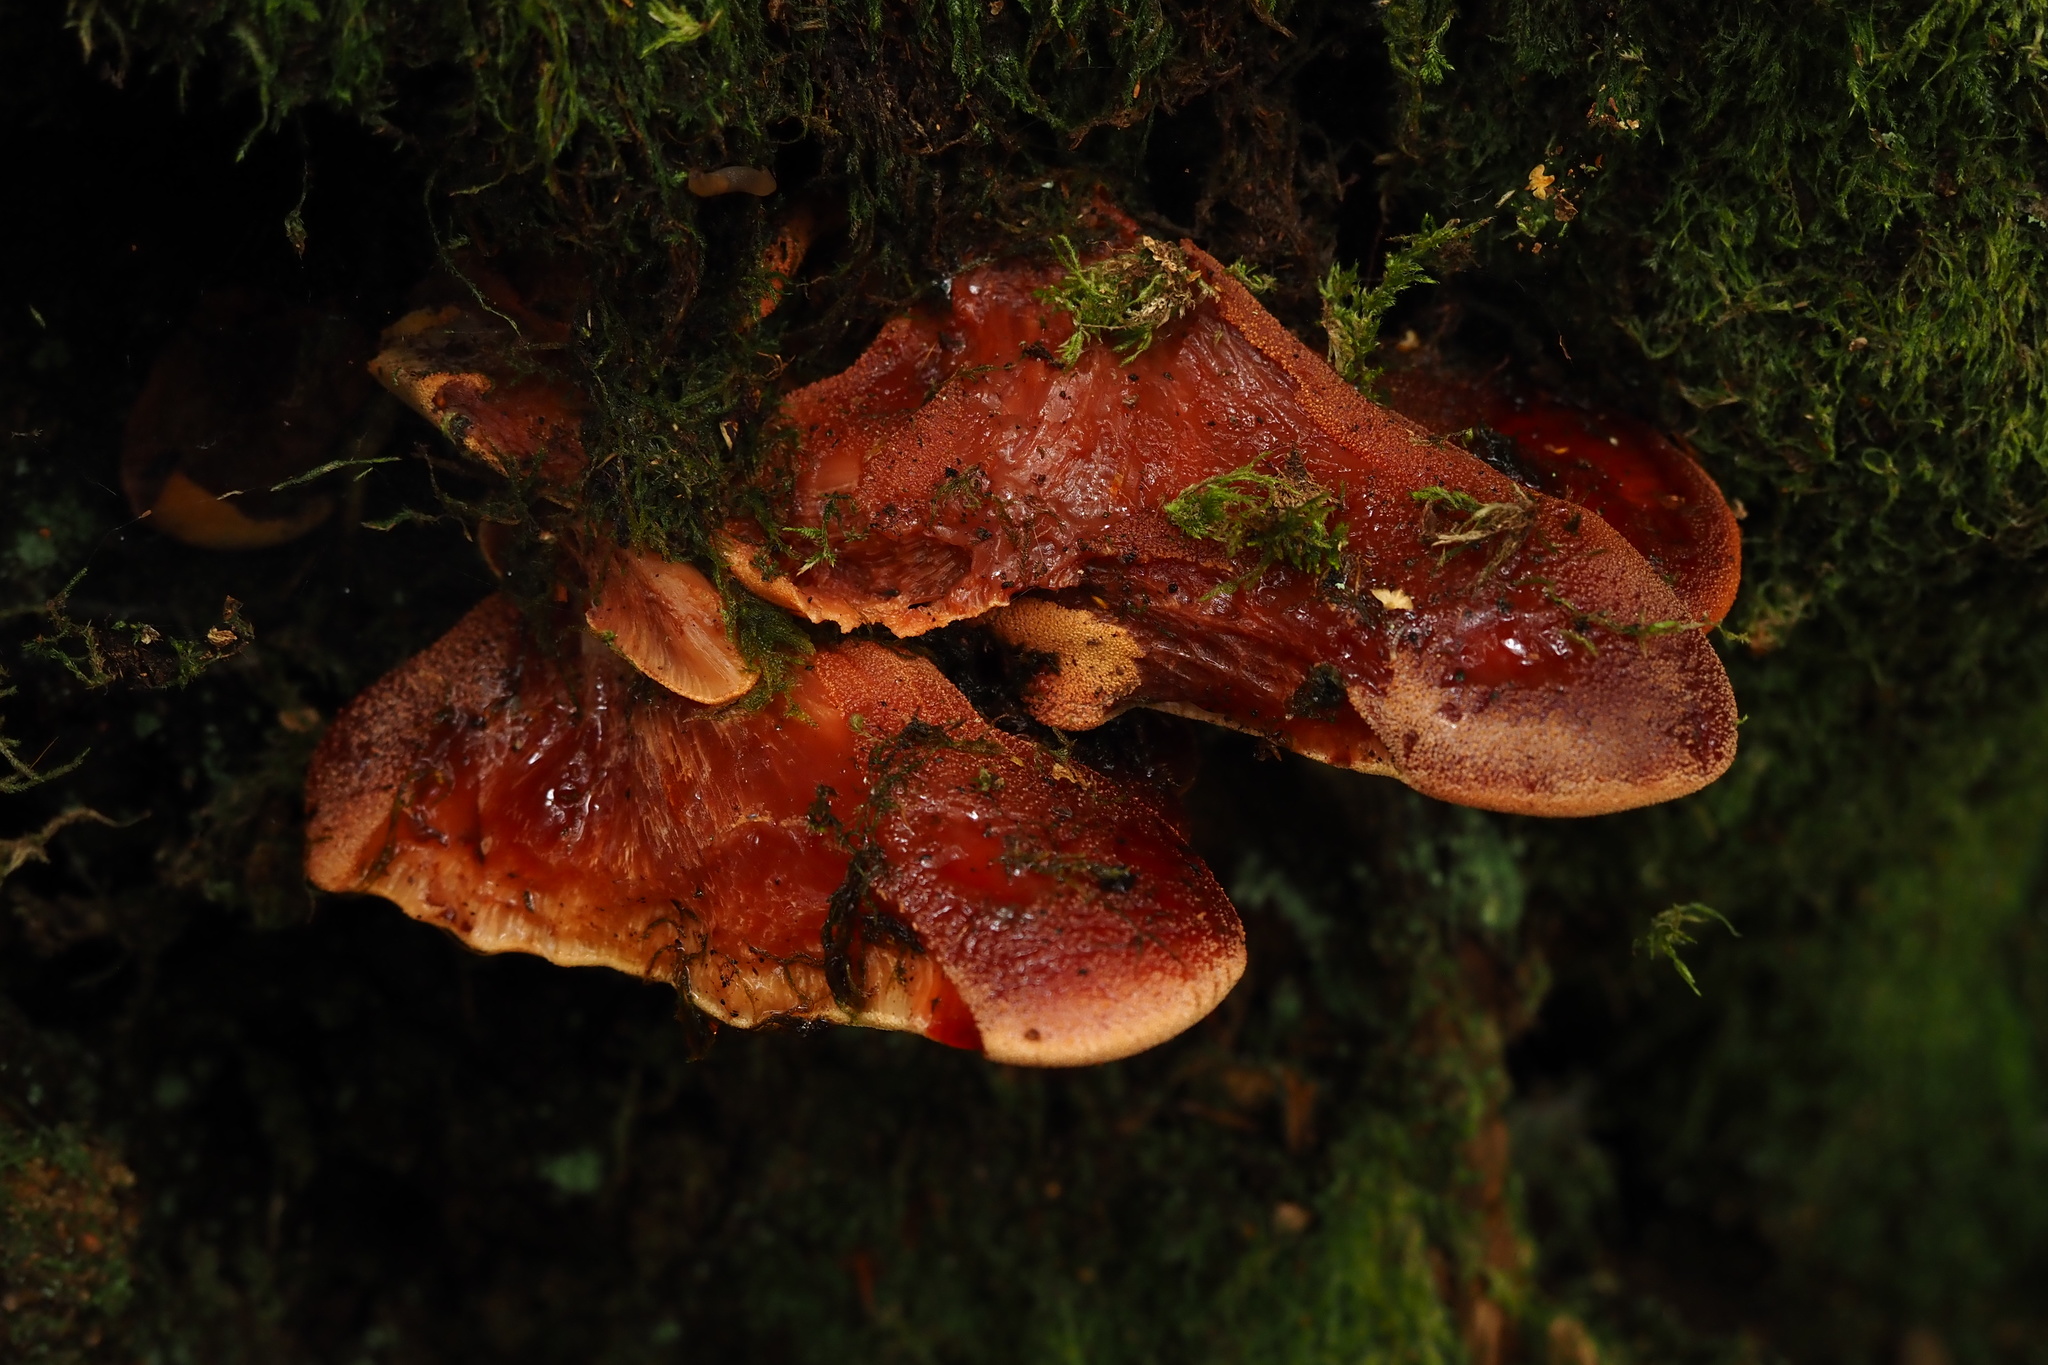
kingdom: Fungi
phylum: Basidiomycota
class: Agaricomycetes
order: Agaricales
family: Fistulinaceae
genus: Fistulina
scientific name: Fistulina hepatica
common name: Beef-steak fungus
